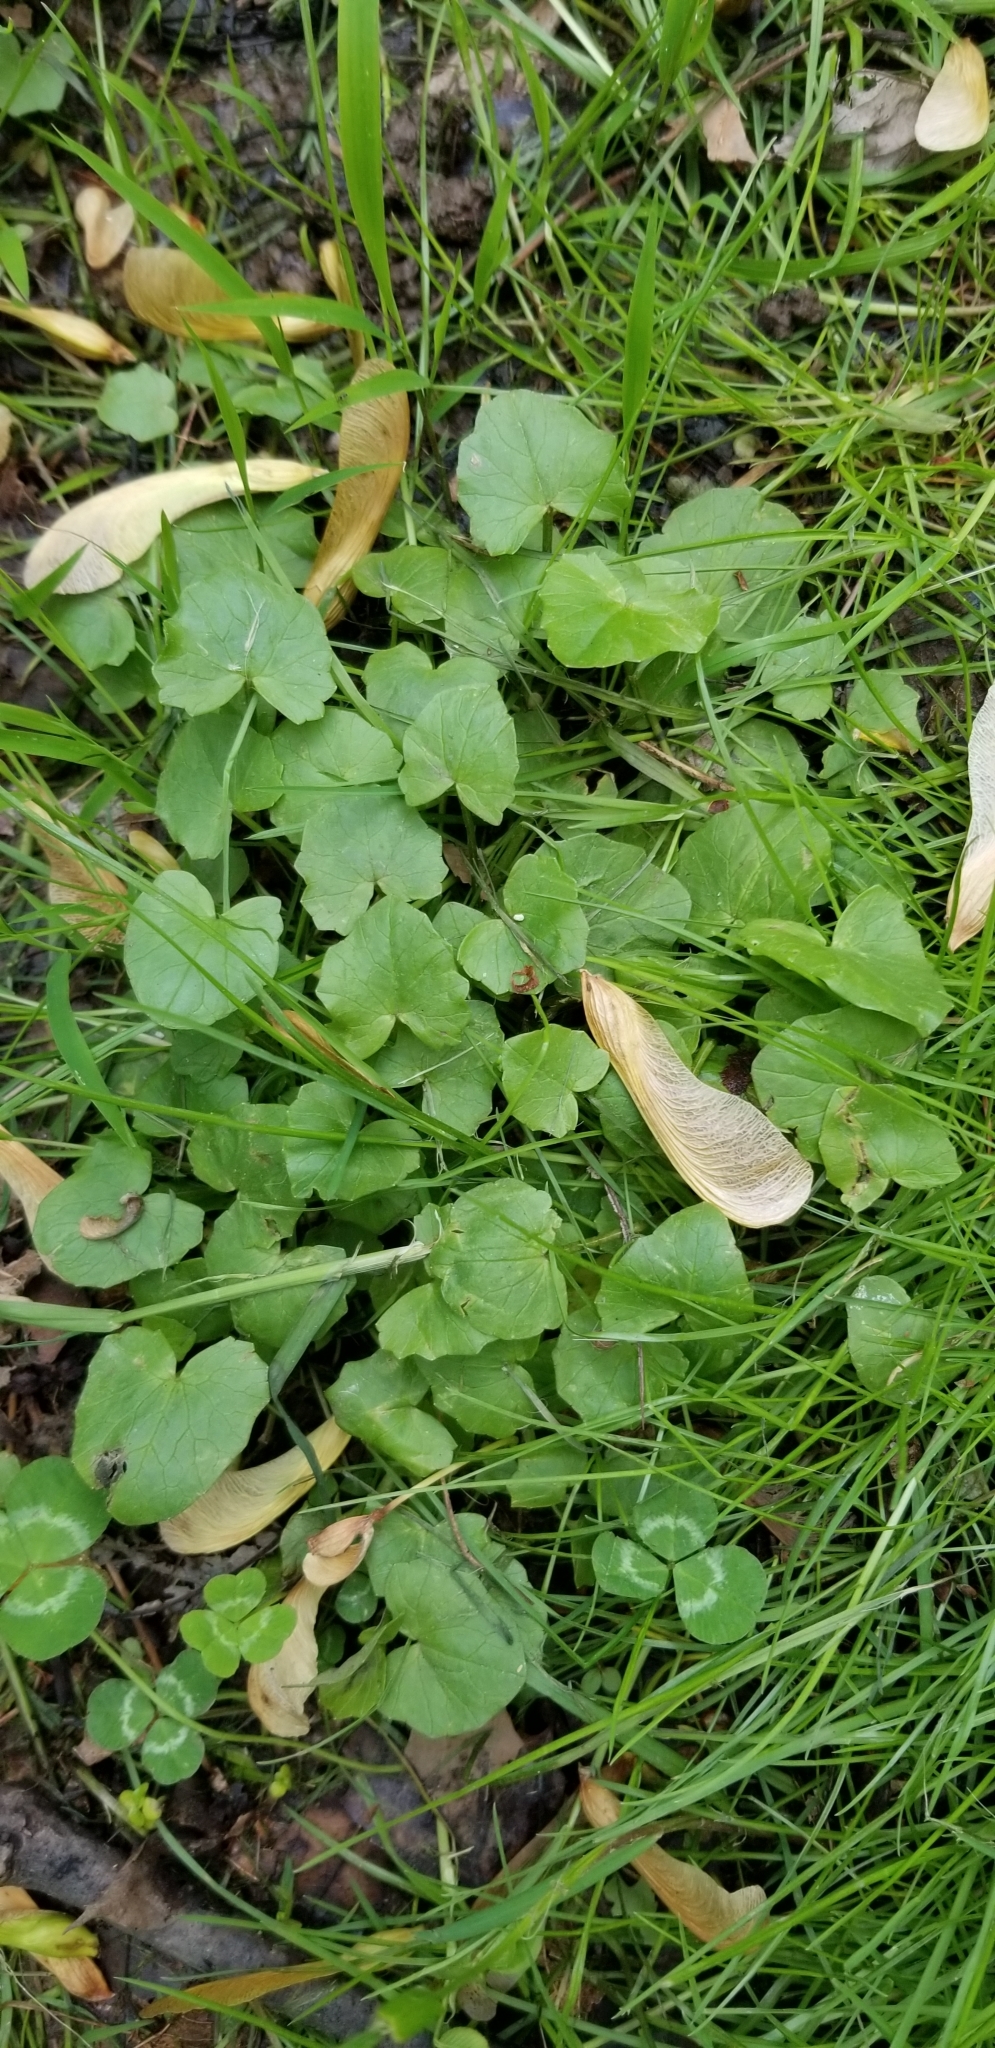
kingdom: Plantae
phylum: Tracheophyta
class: Magnoliopsida
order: Ranunculales
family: Ranunculaceae
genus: Ficaria
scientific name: Ficaria verna
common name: Lesser celandine
